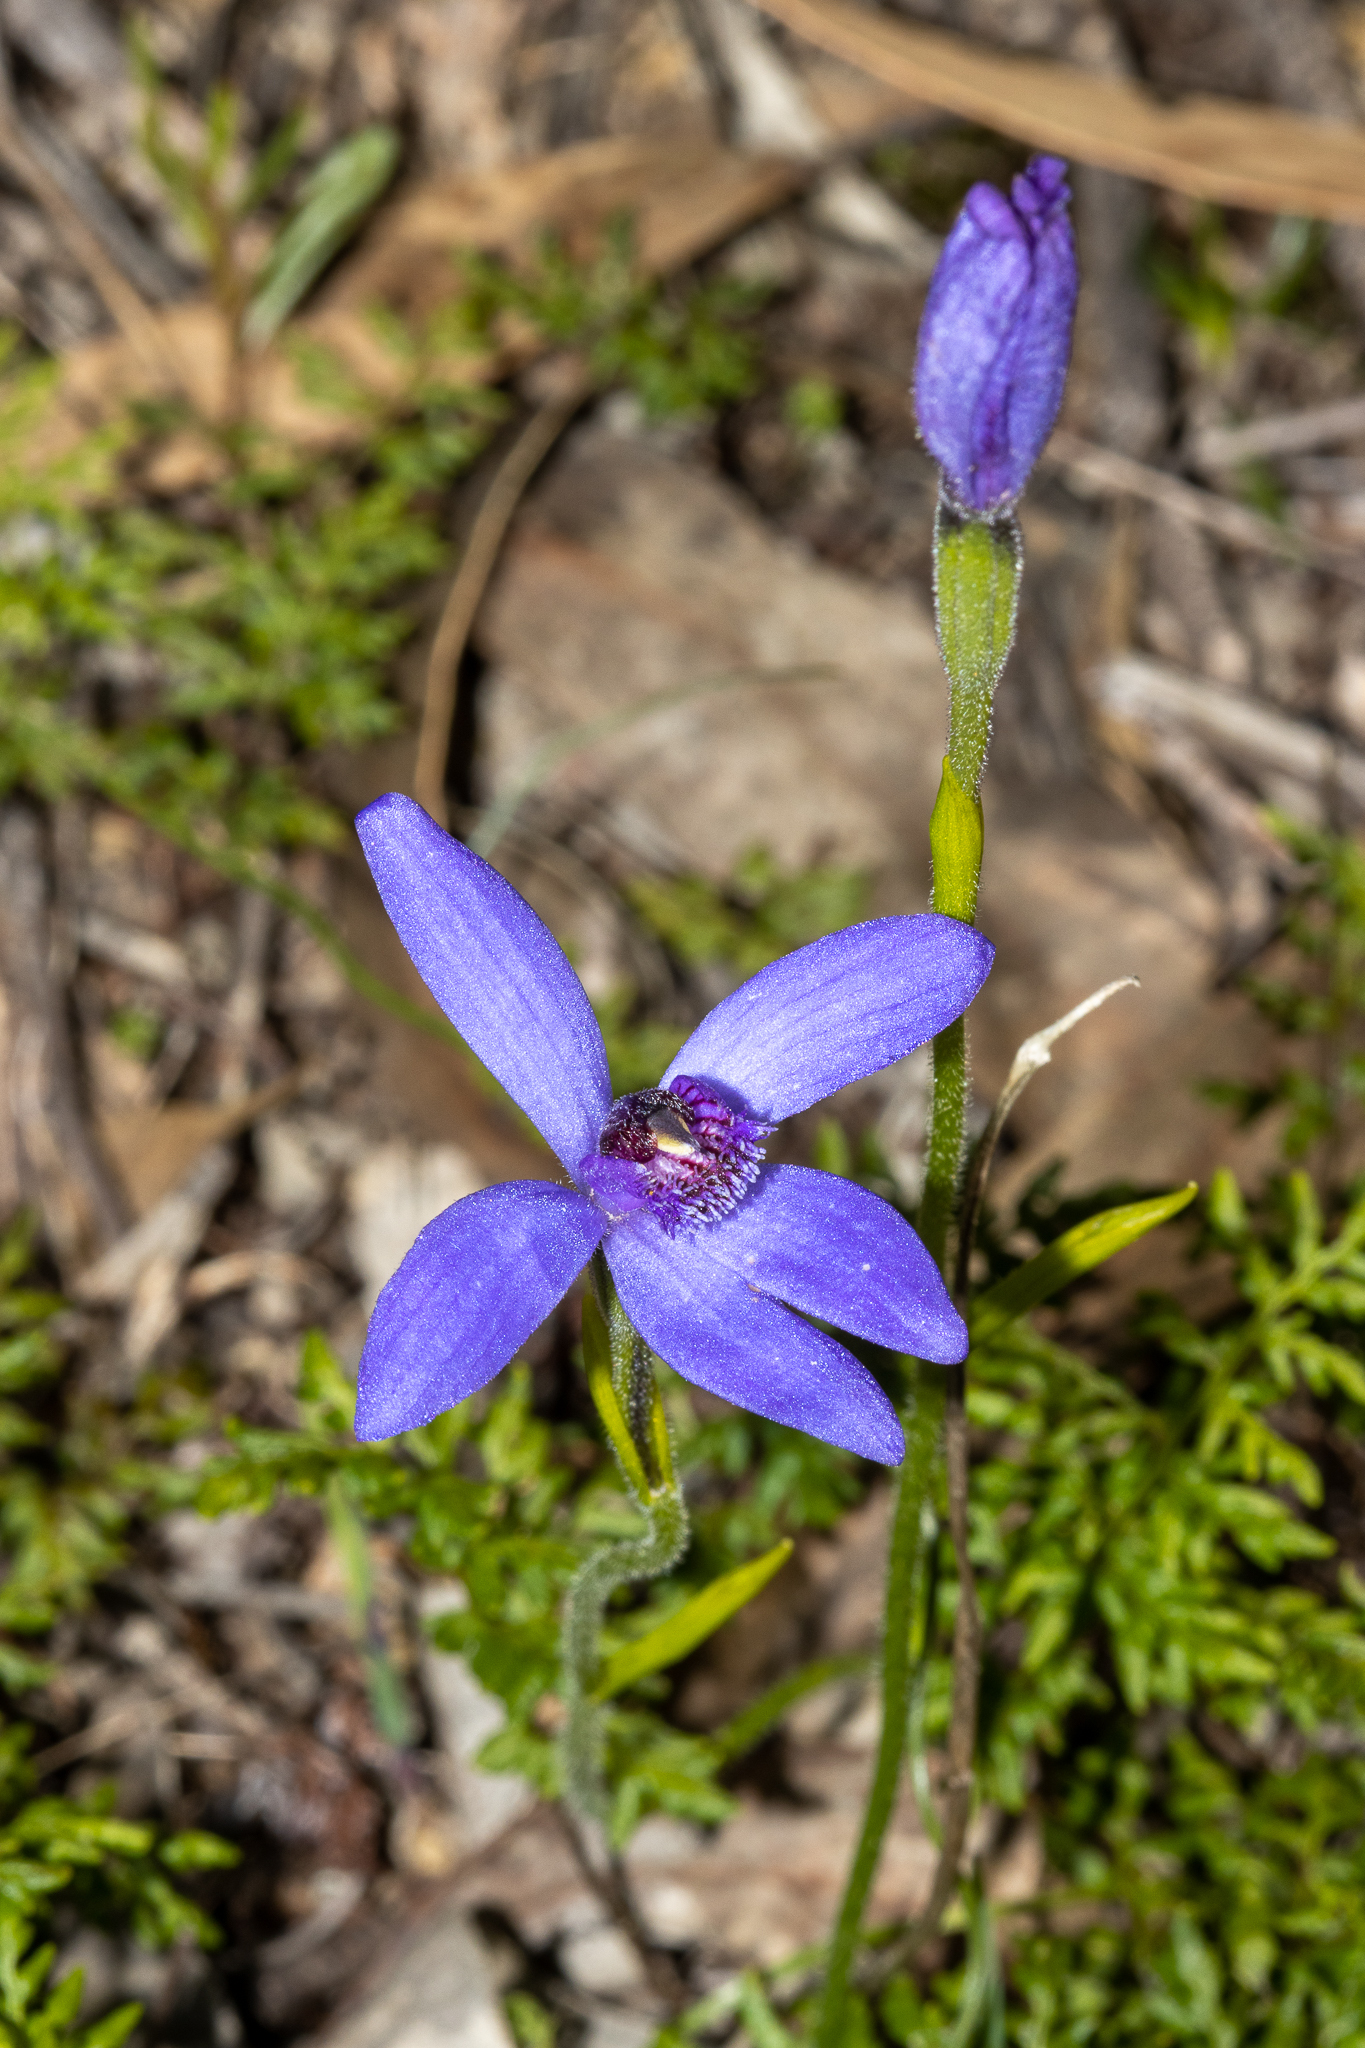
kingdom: Plantae
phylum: Tracheophyta
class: Liliopsida
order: Asparagales
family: Orchidaceae
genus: Pheladenia
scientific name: Pheladenia deformis
